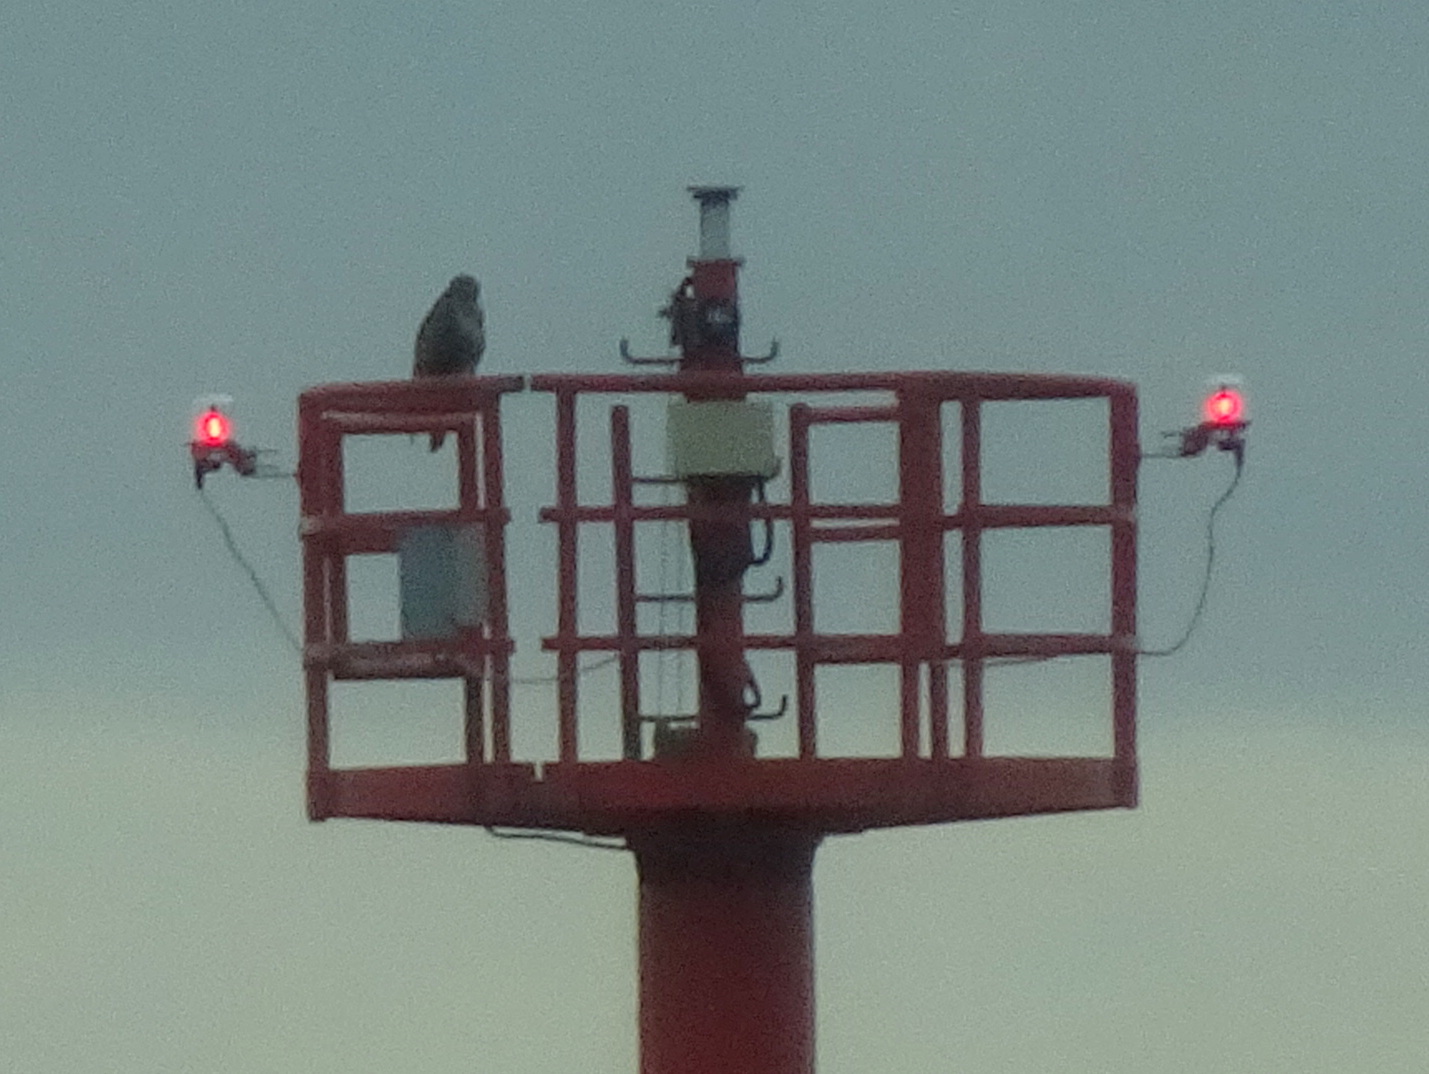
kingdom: Animalia
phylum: Chordata
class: Aves
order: Accipitriformes
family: Accipitridae
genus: Buteo
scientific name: Buteo buteo
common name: Common buzzard
